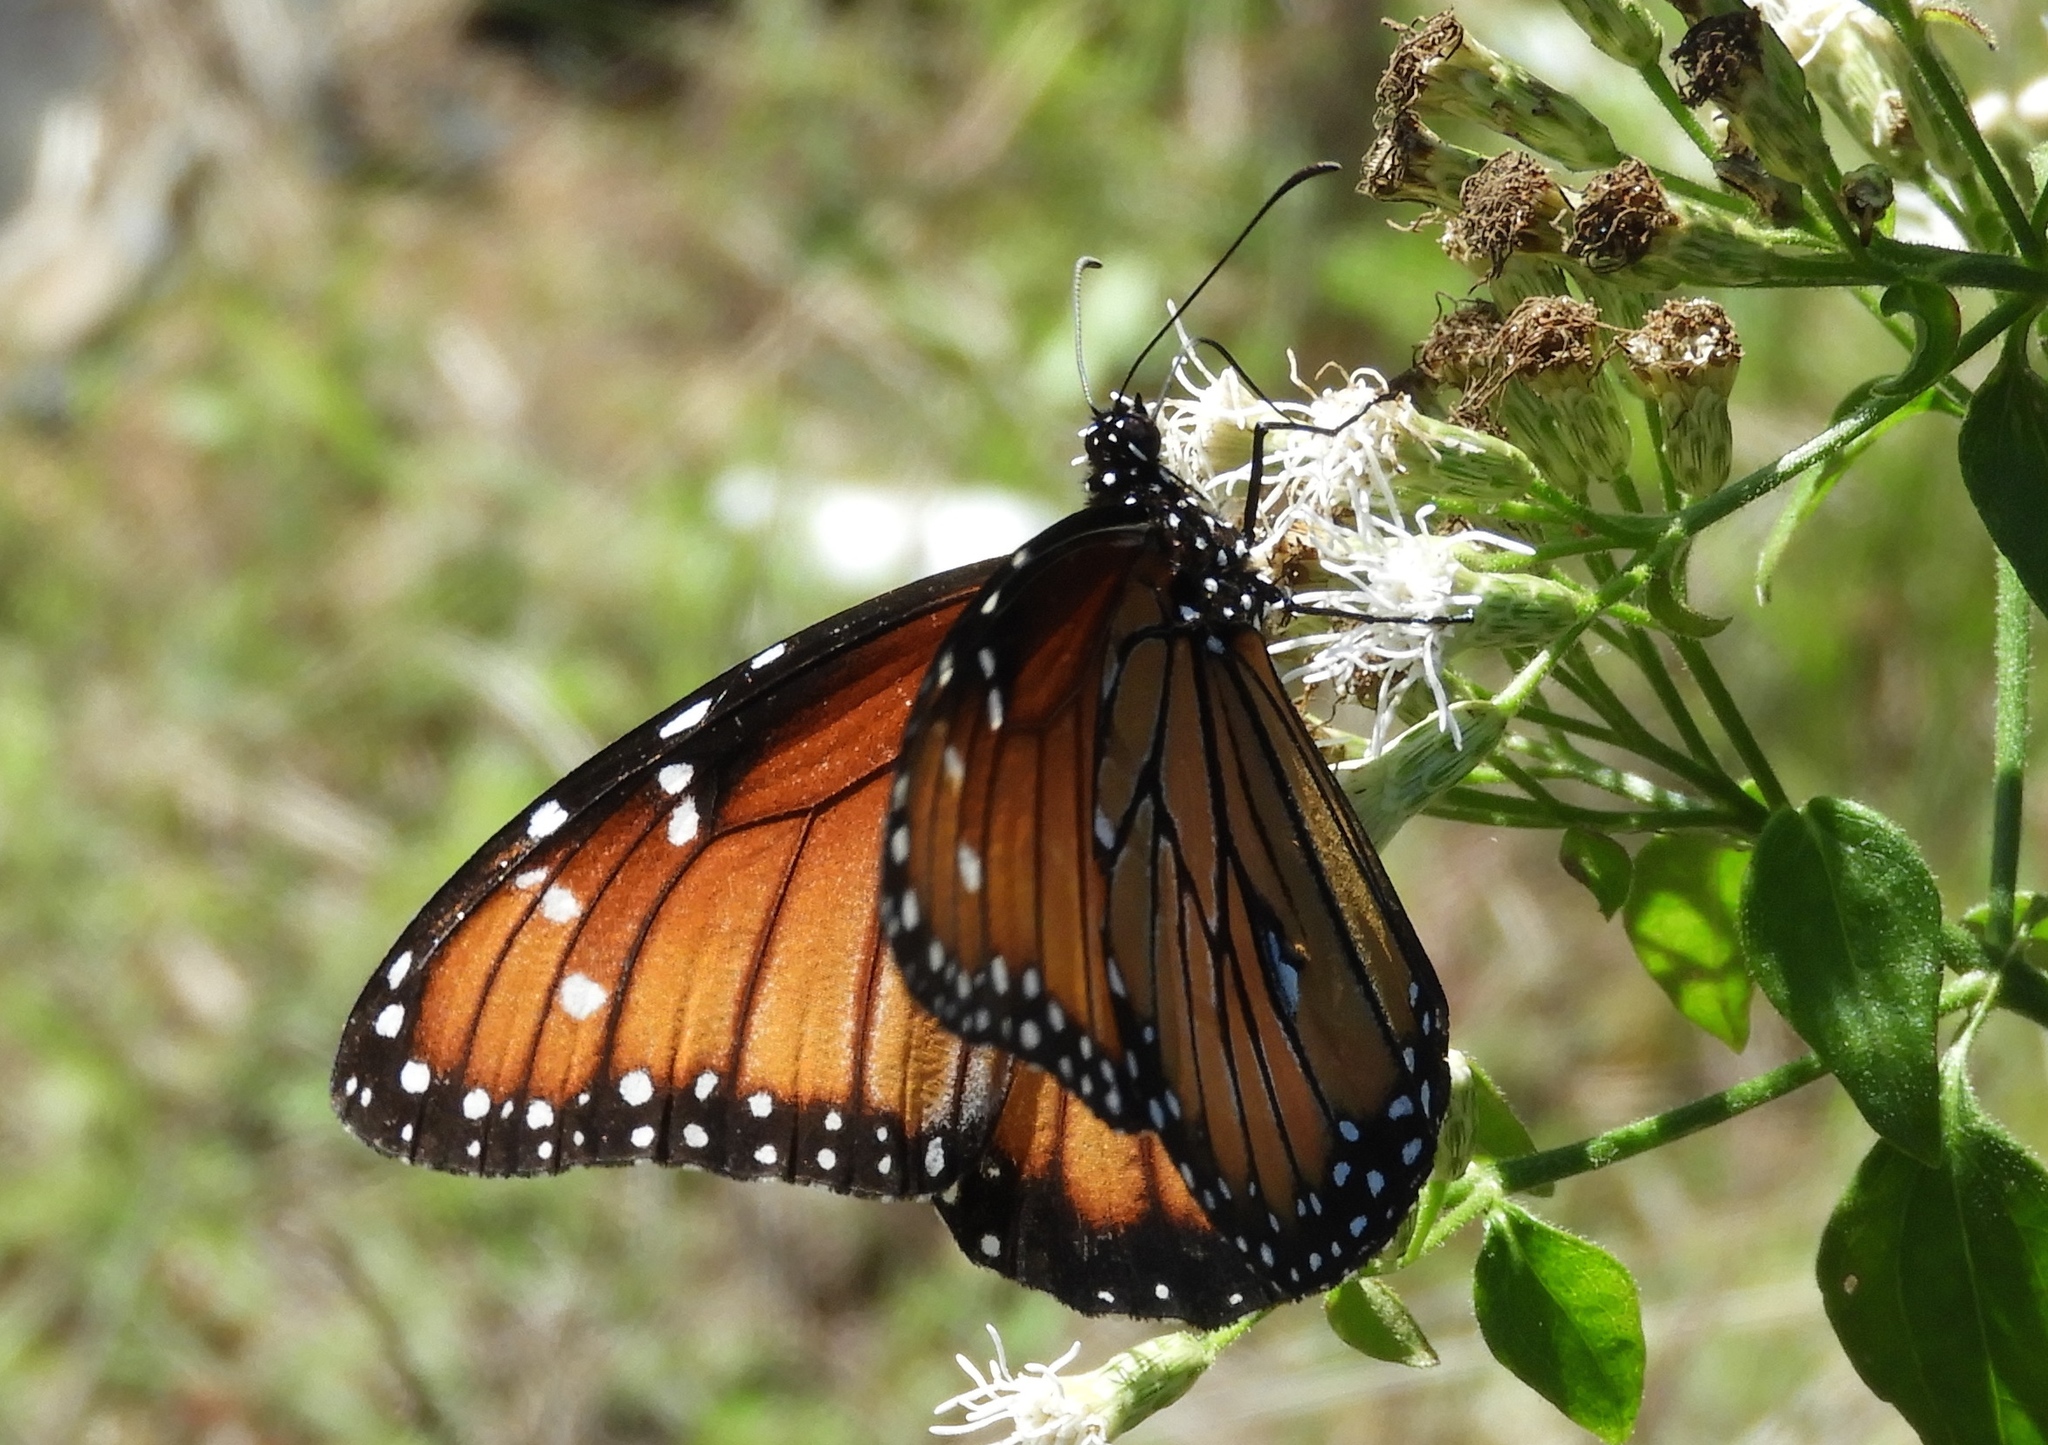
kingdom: Animalia
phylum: Arthropoda
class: Insecta
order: Lepidoptera
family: Nymphalidae
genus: Danaus
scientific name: Danaus eresimus
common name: Soldier
